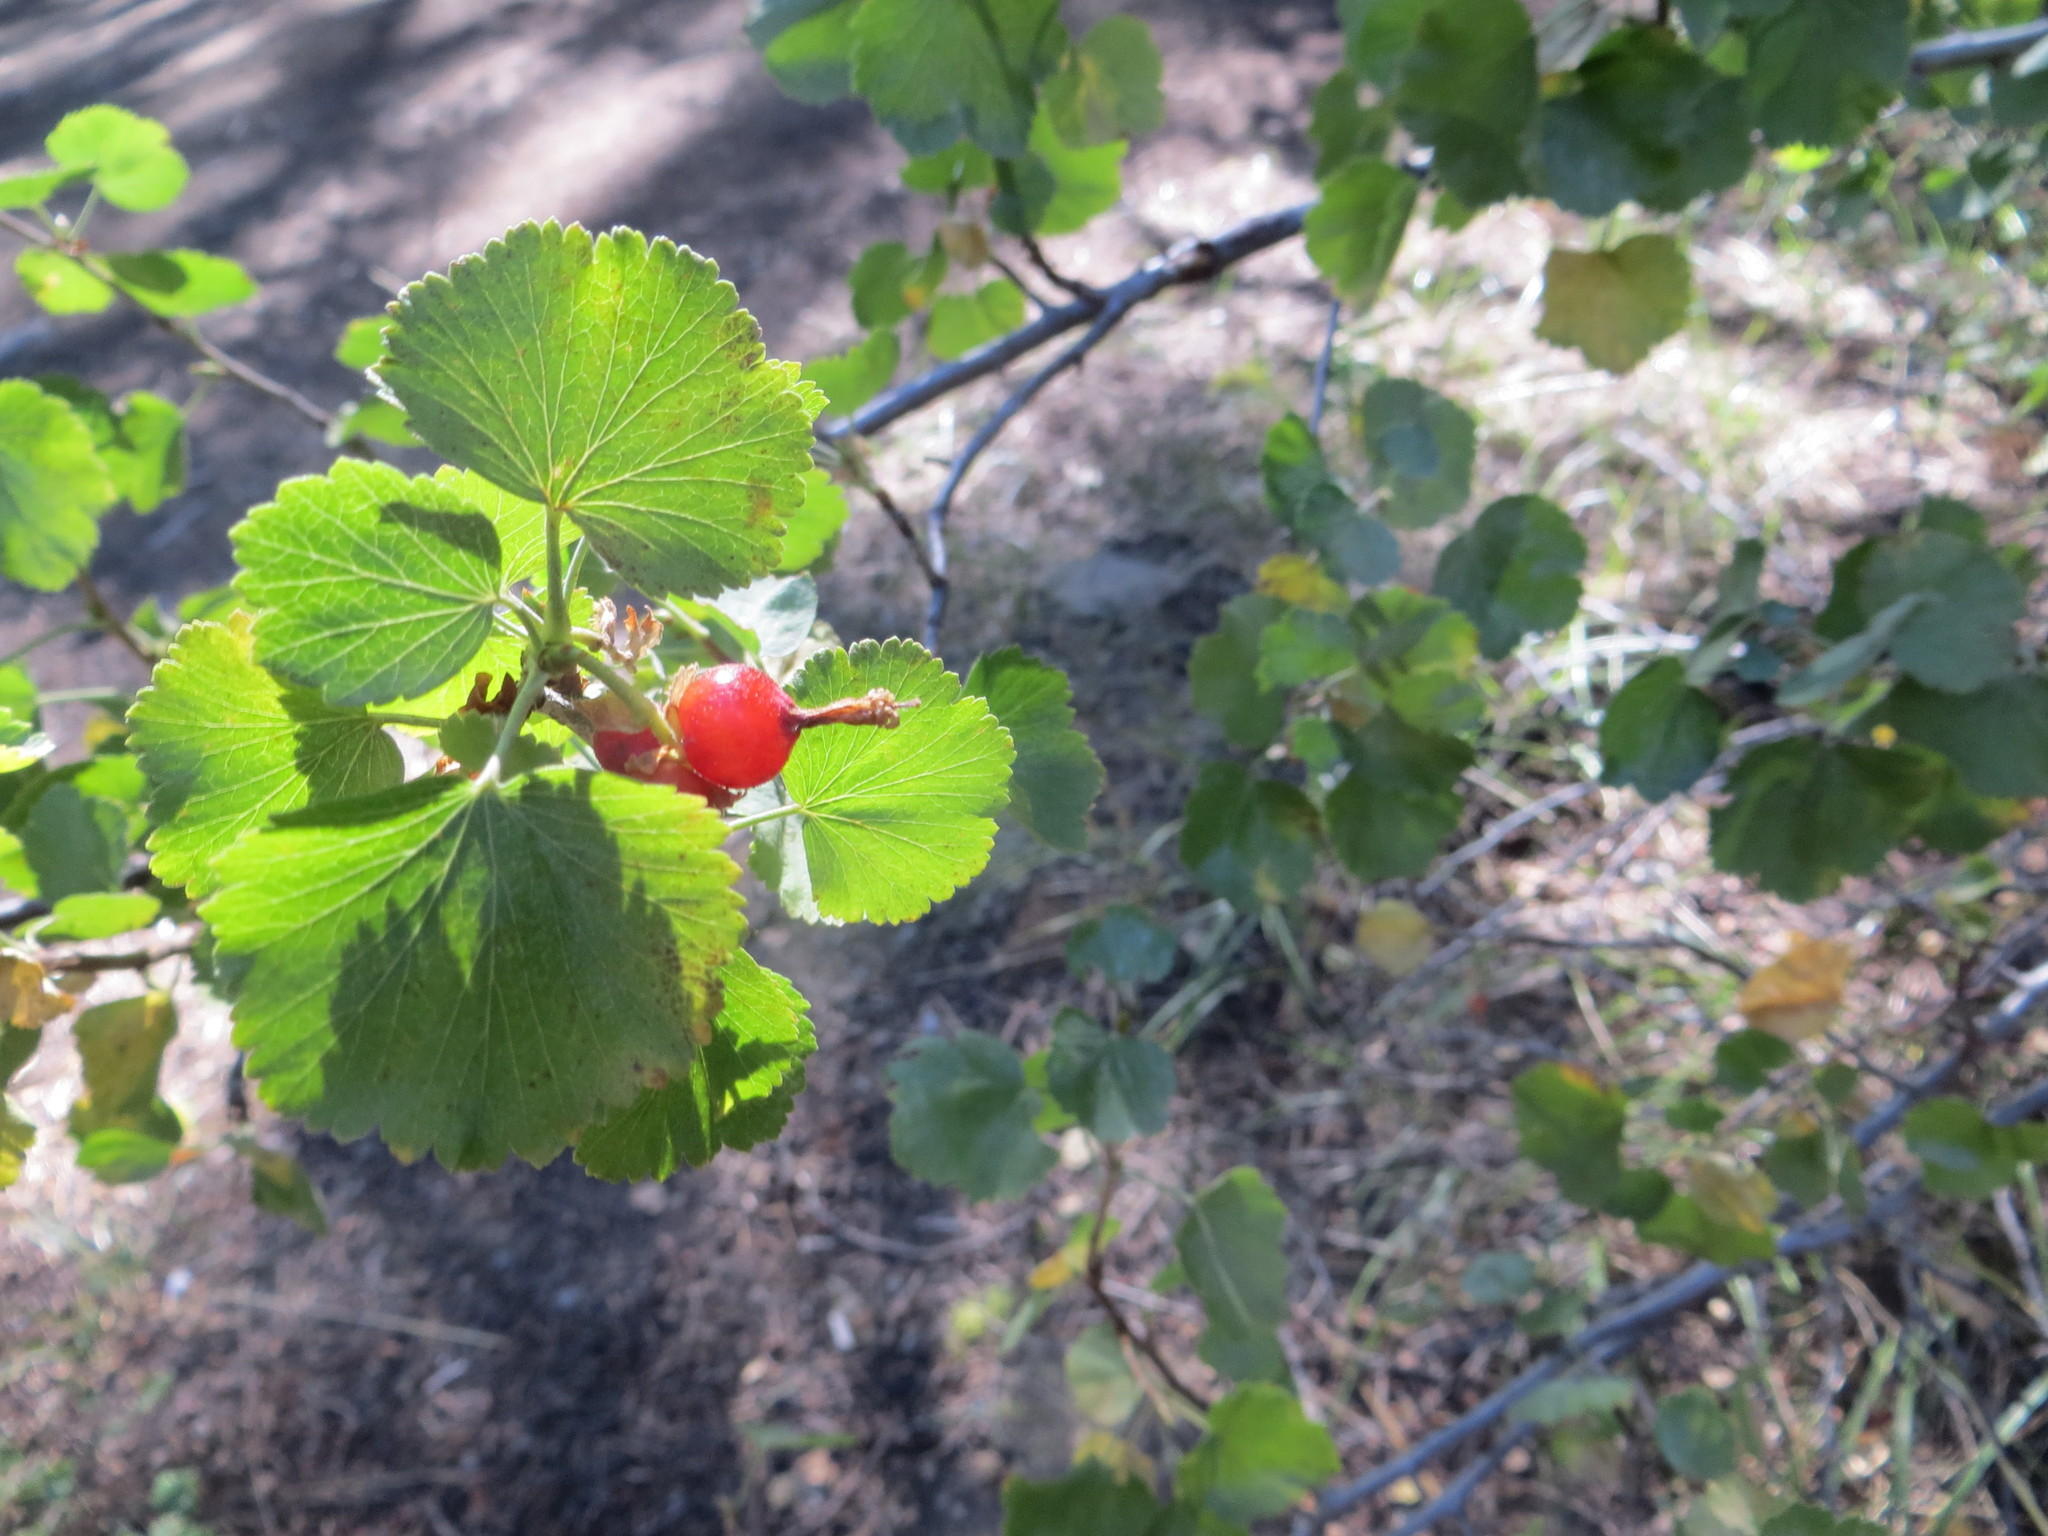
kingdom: Plantae
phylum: Tracheophyta
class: Magnoliopsida
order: Saxifragales
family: Grossulariaceae
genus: Ribes
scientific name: Ribes cereum
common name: Wax currant
